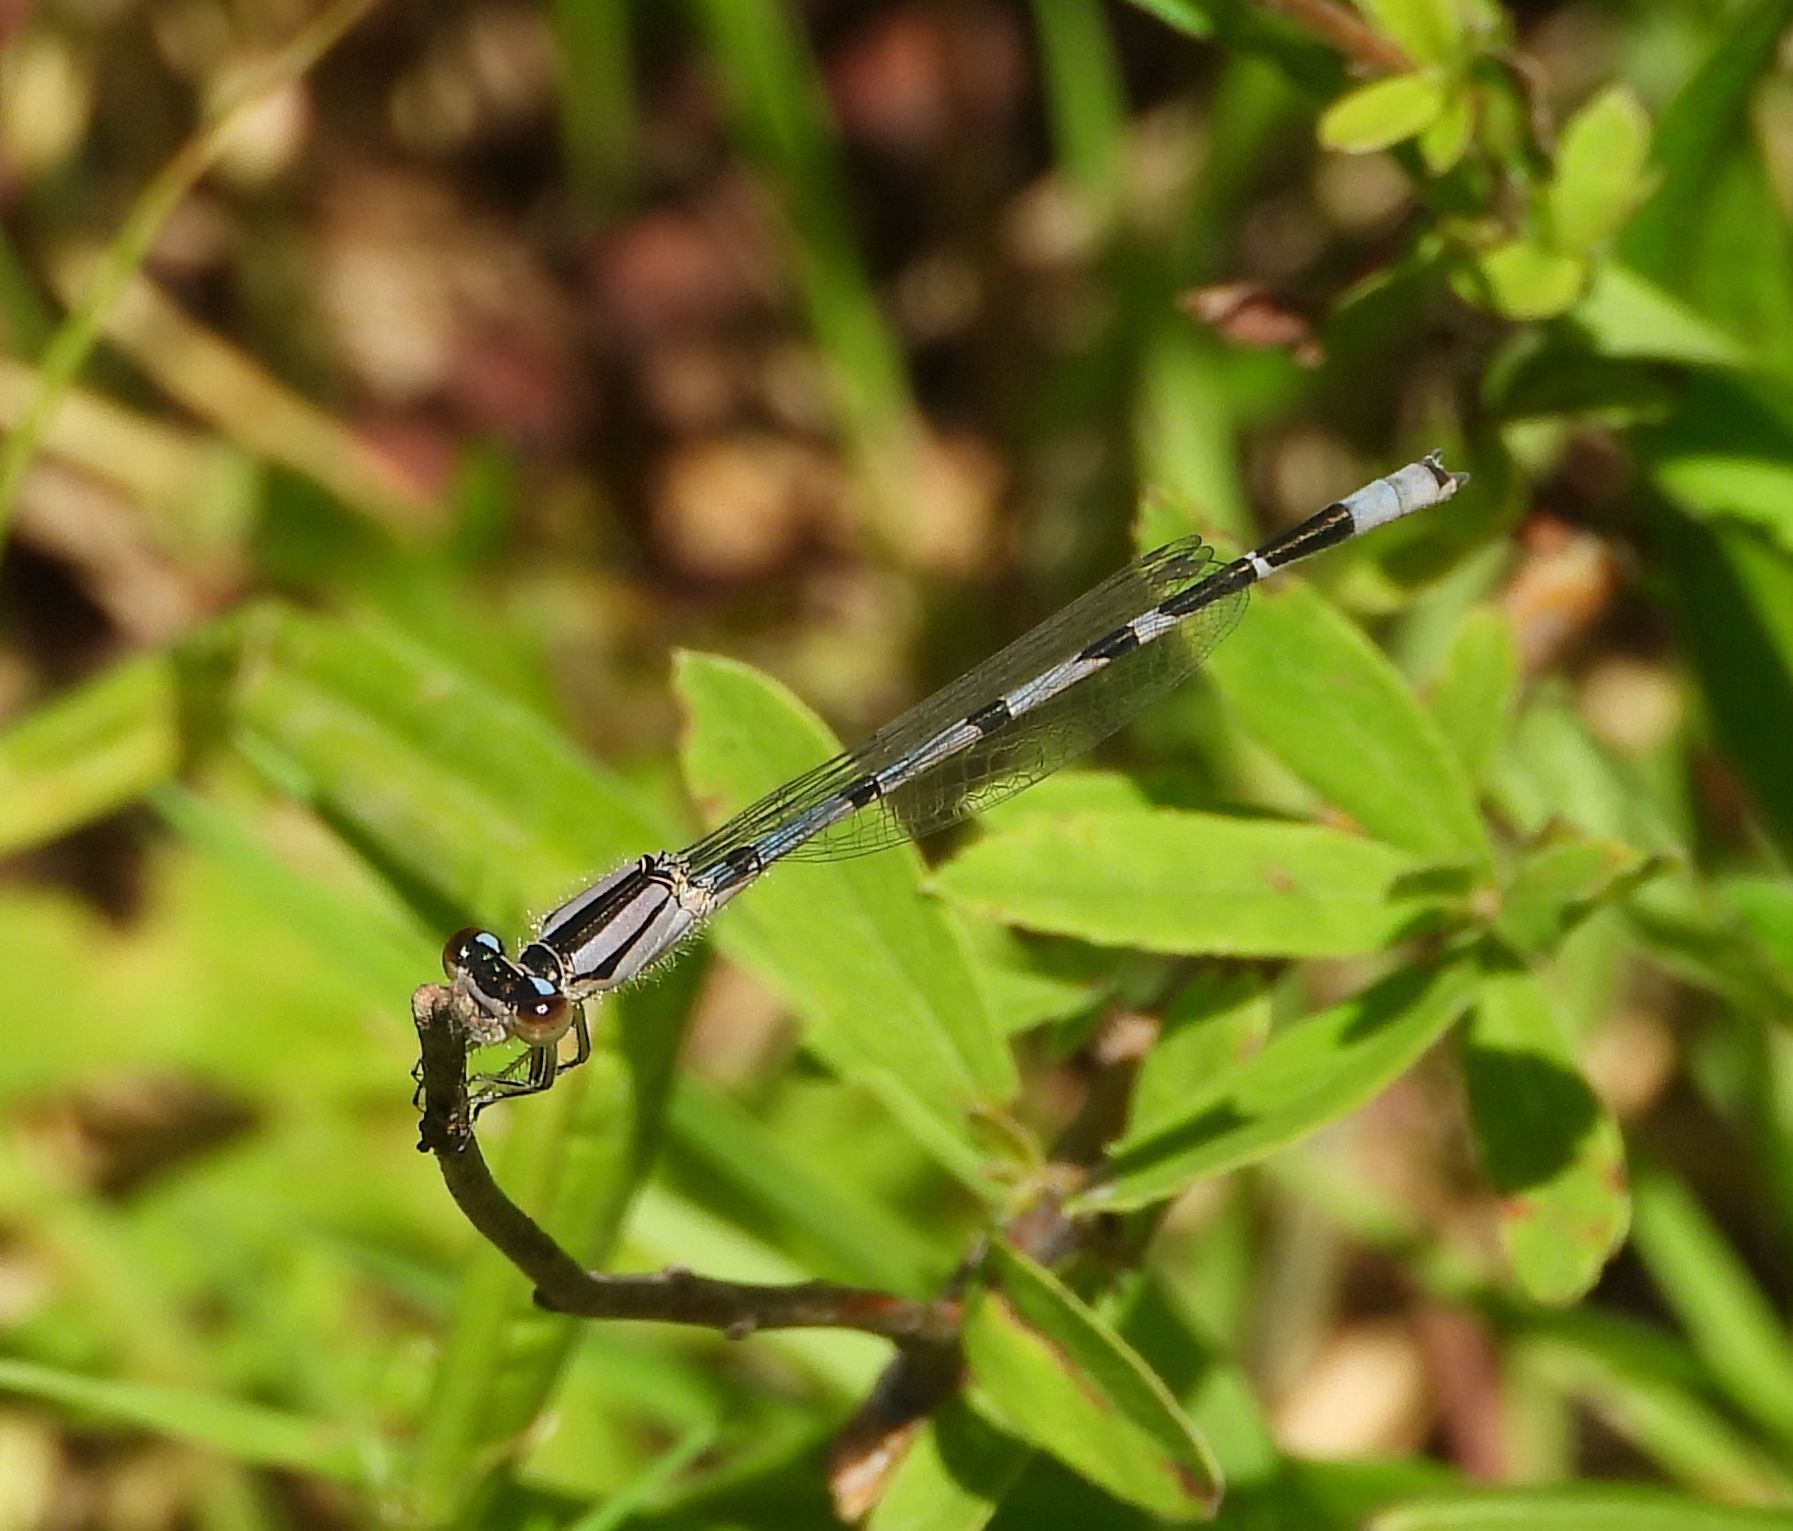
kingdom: Animalia
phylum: Arthropoda
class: Insecta
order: Odonata
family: Coenagrionidae
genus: Enallagma
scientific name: Enallagma civile
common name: Damselfly
